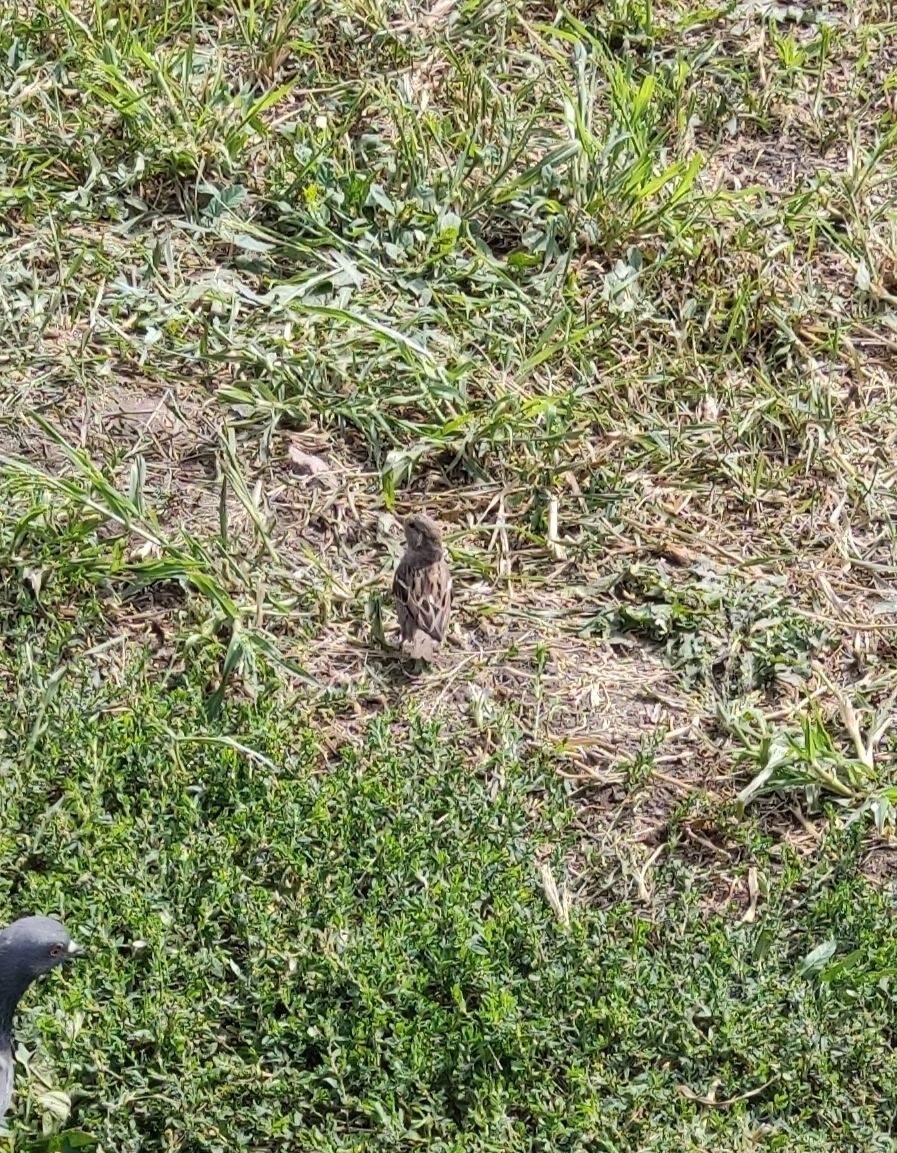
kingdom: Animalia
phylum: Chordata
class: Aves
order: Passeriformes
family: Passeridae
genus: Passer
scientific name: Passer domesticus
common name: House sparrow
